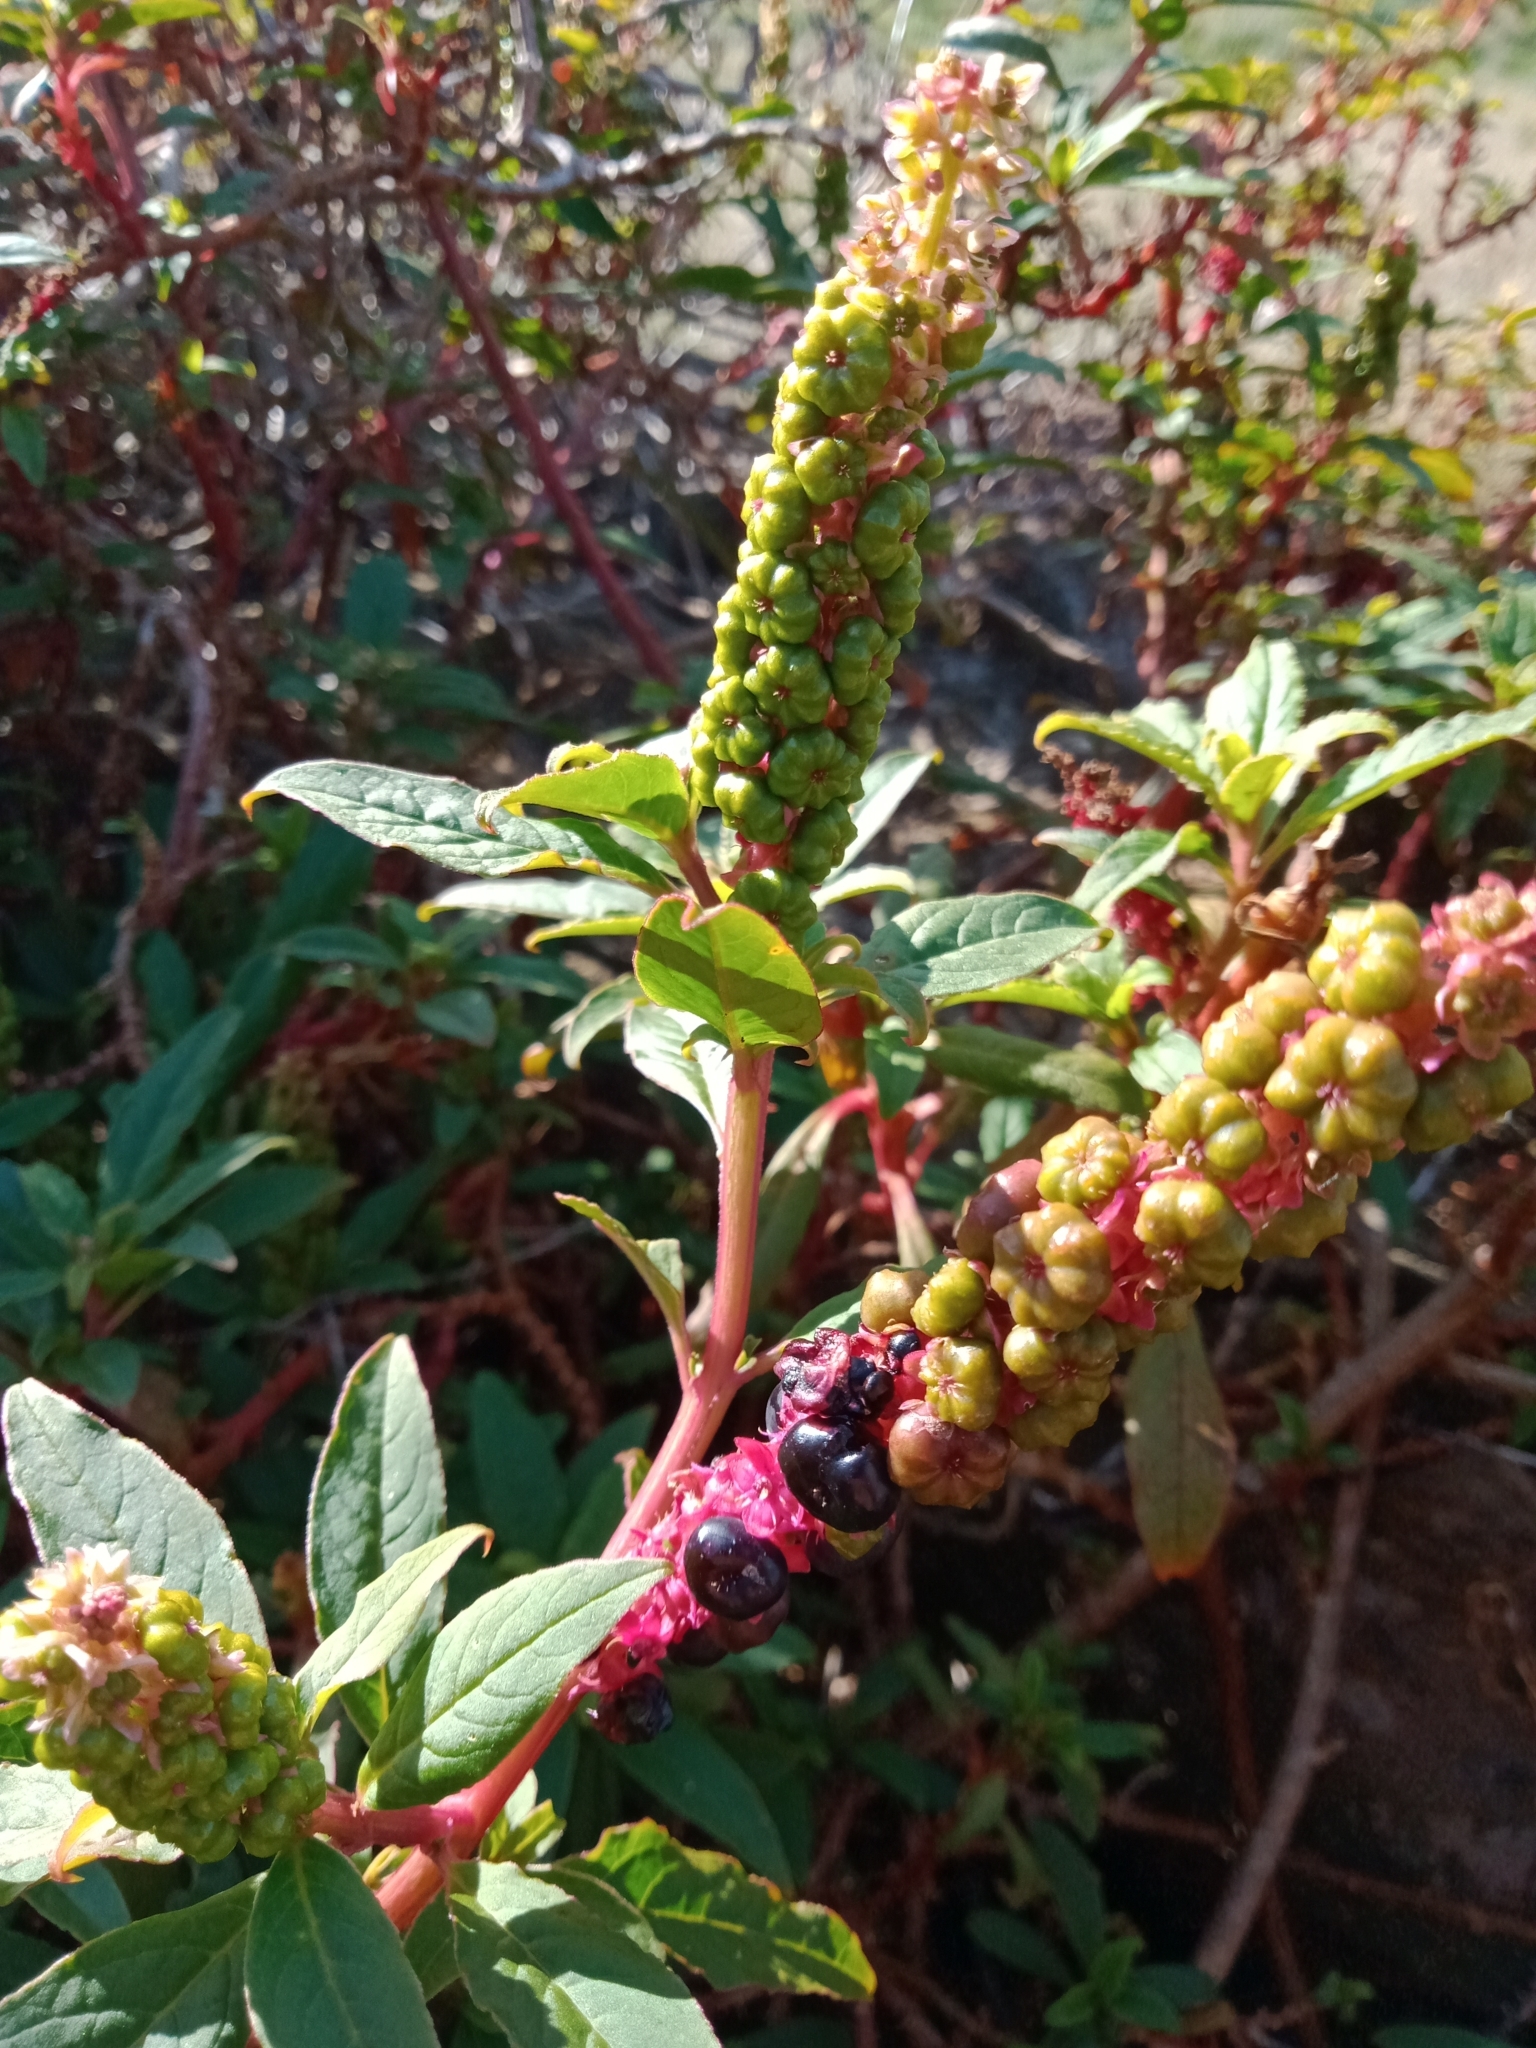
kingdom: Plantae
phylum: Tracheophyta
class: Magnoliopsida
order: Caryophyllales
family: Phytolaccaceae
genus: Phytolacca
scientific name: Phytolacca icosandra
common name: Button pokeweed
